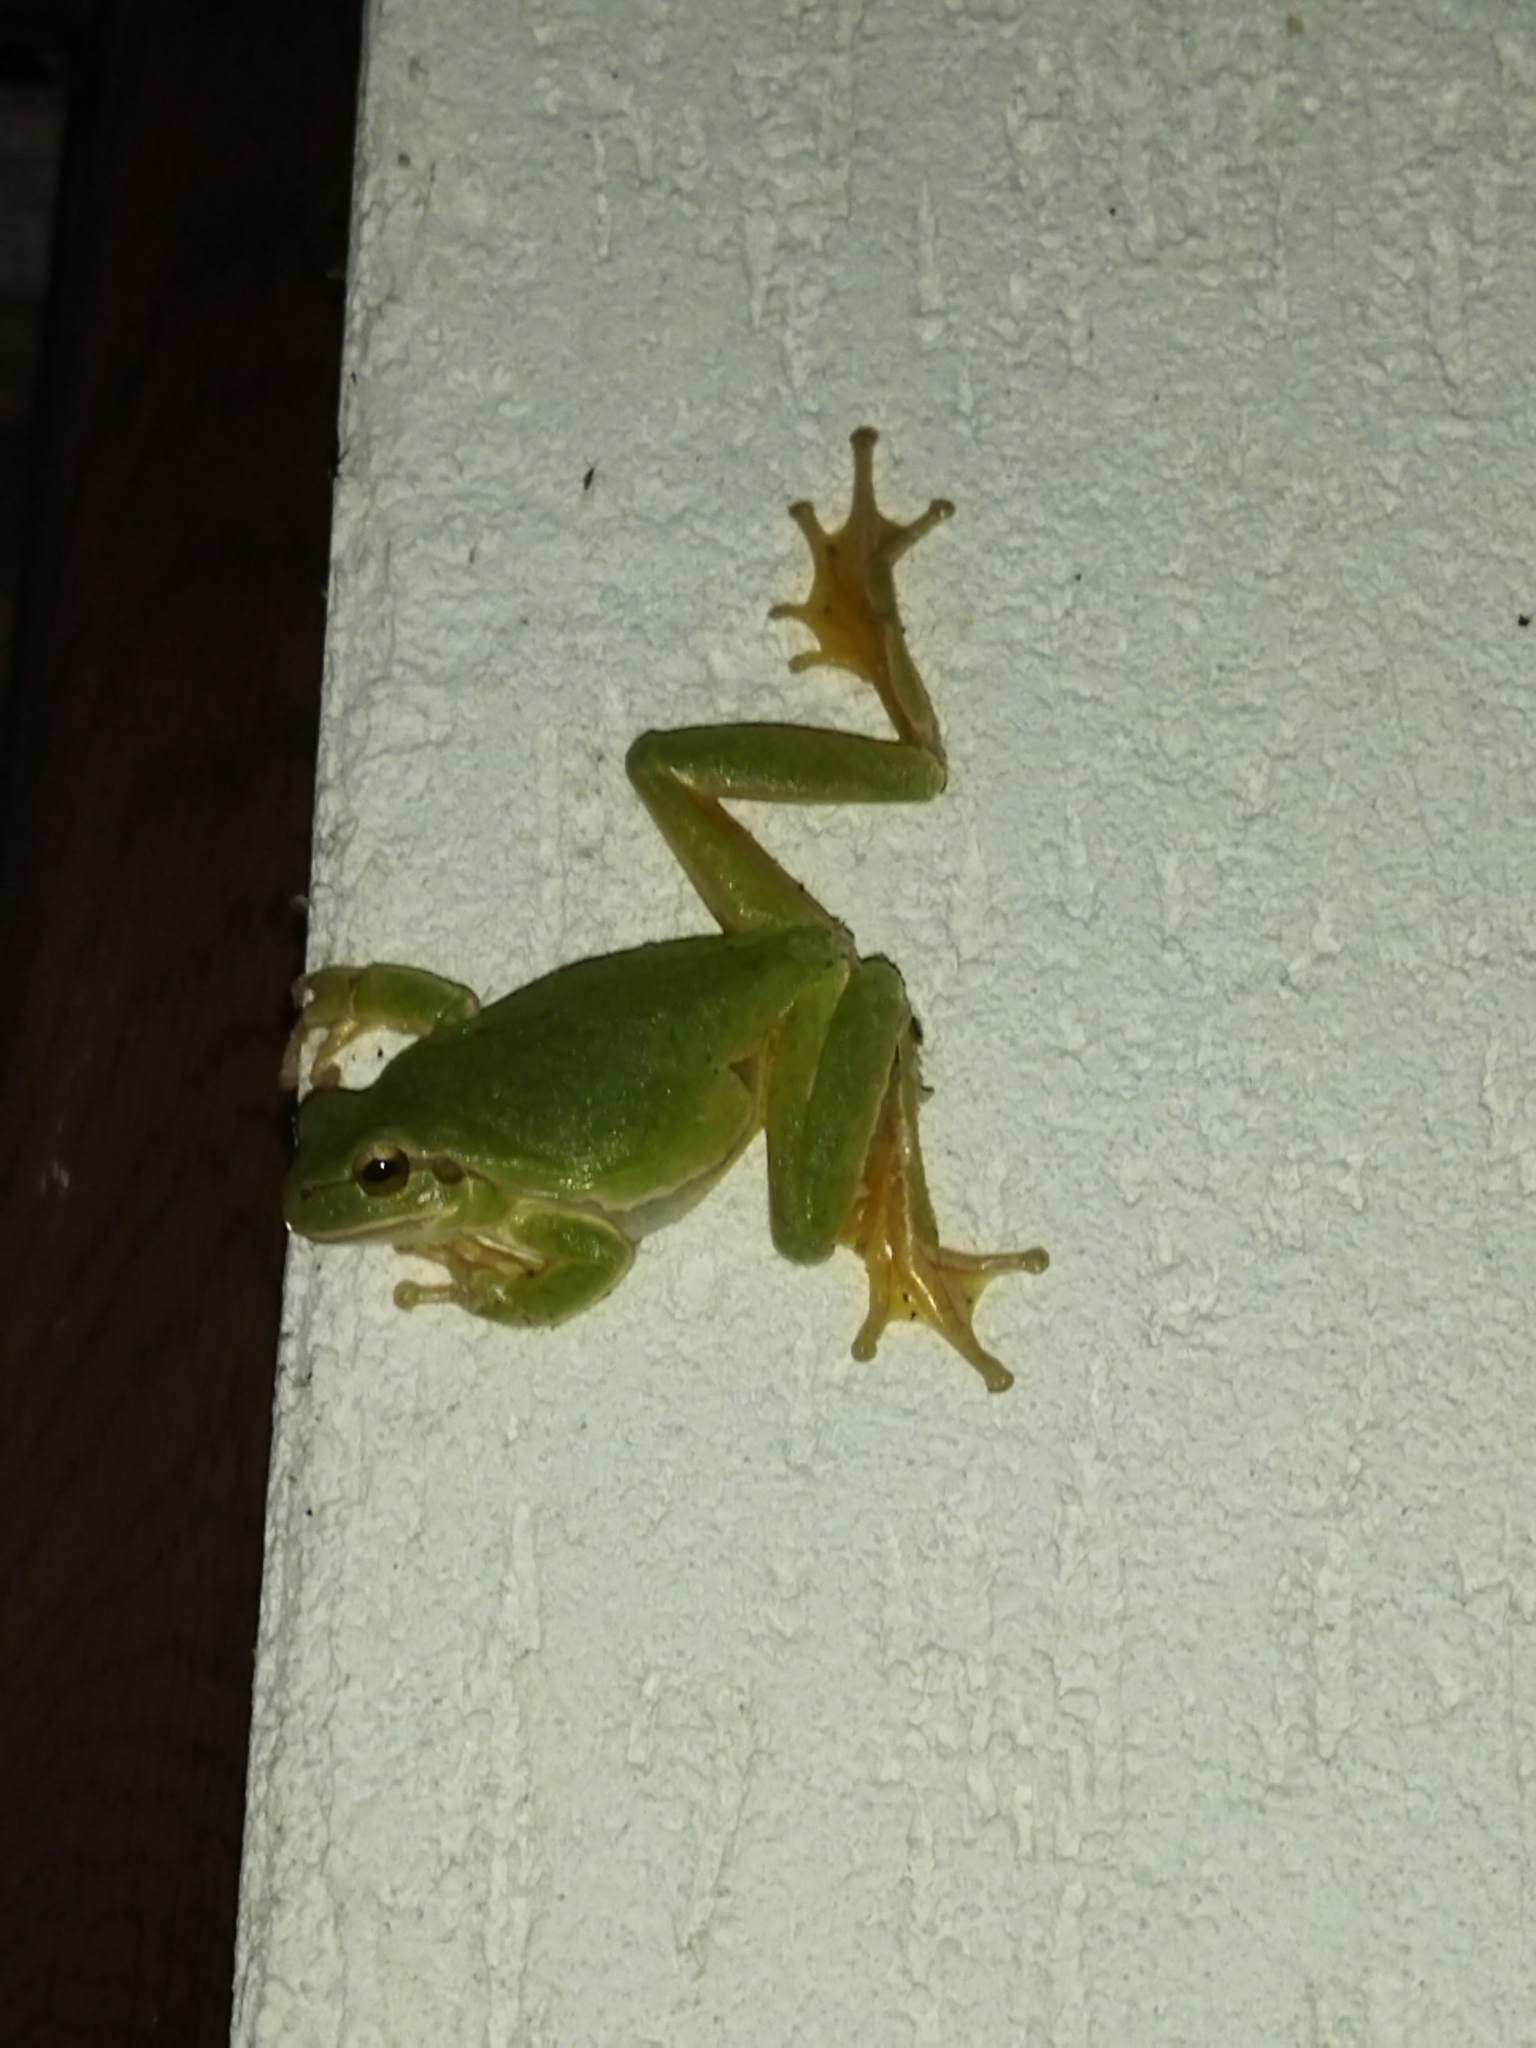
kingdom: Animalia
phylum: Chordata
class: Amphibia
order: Anura
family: Hylidae
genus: Hyla
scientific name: Hyla orientalis
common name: Caucasian treefrog
